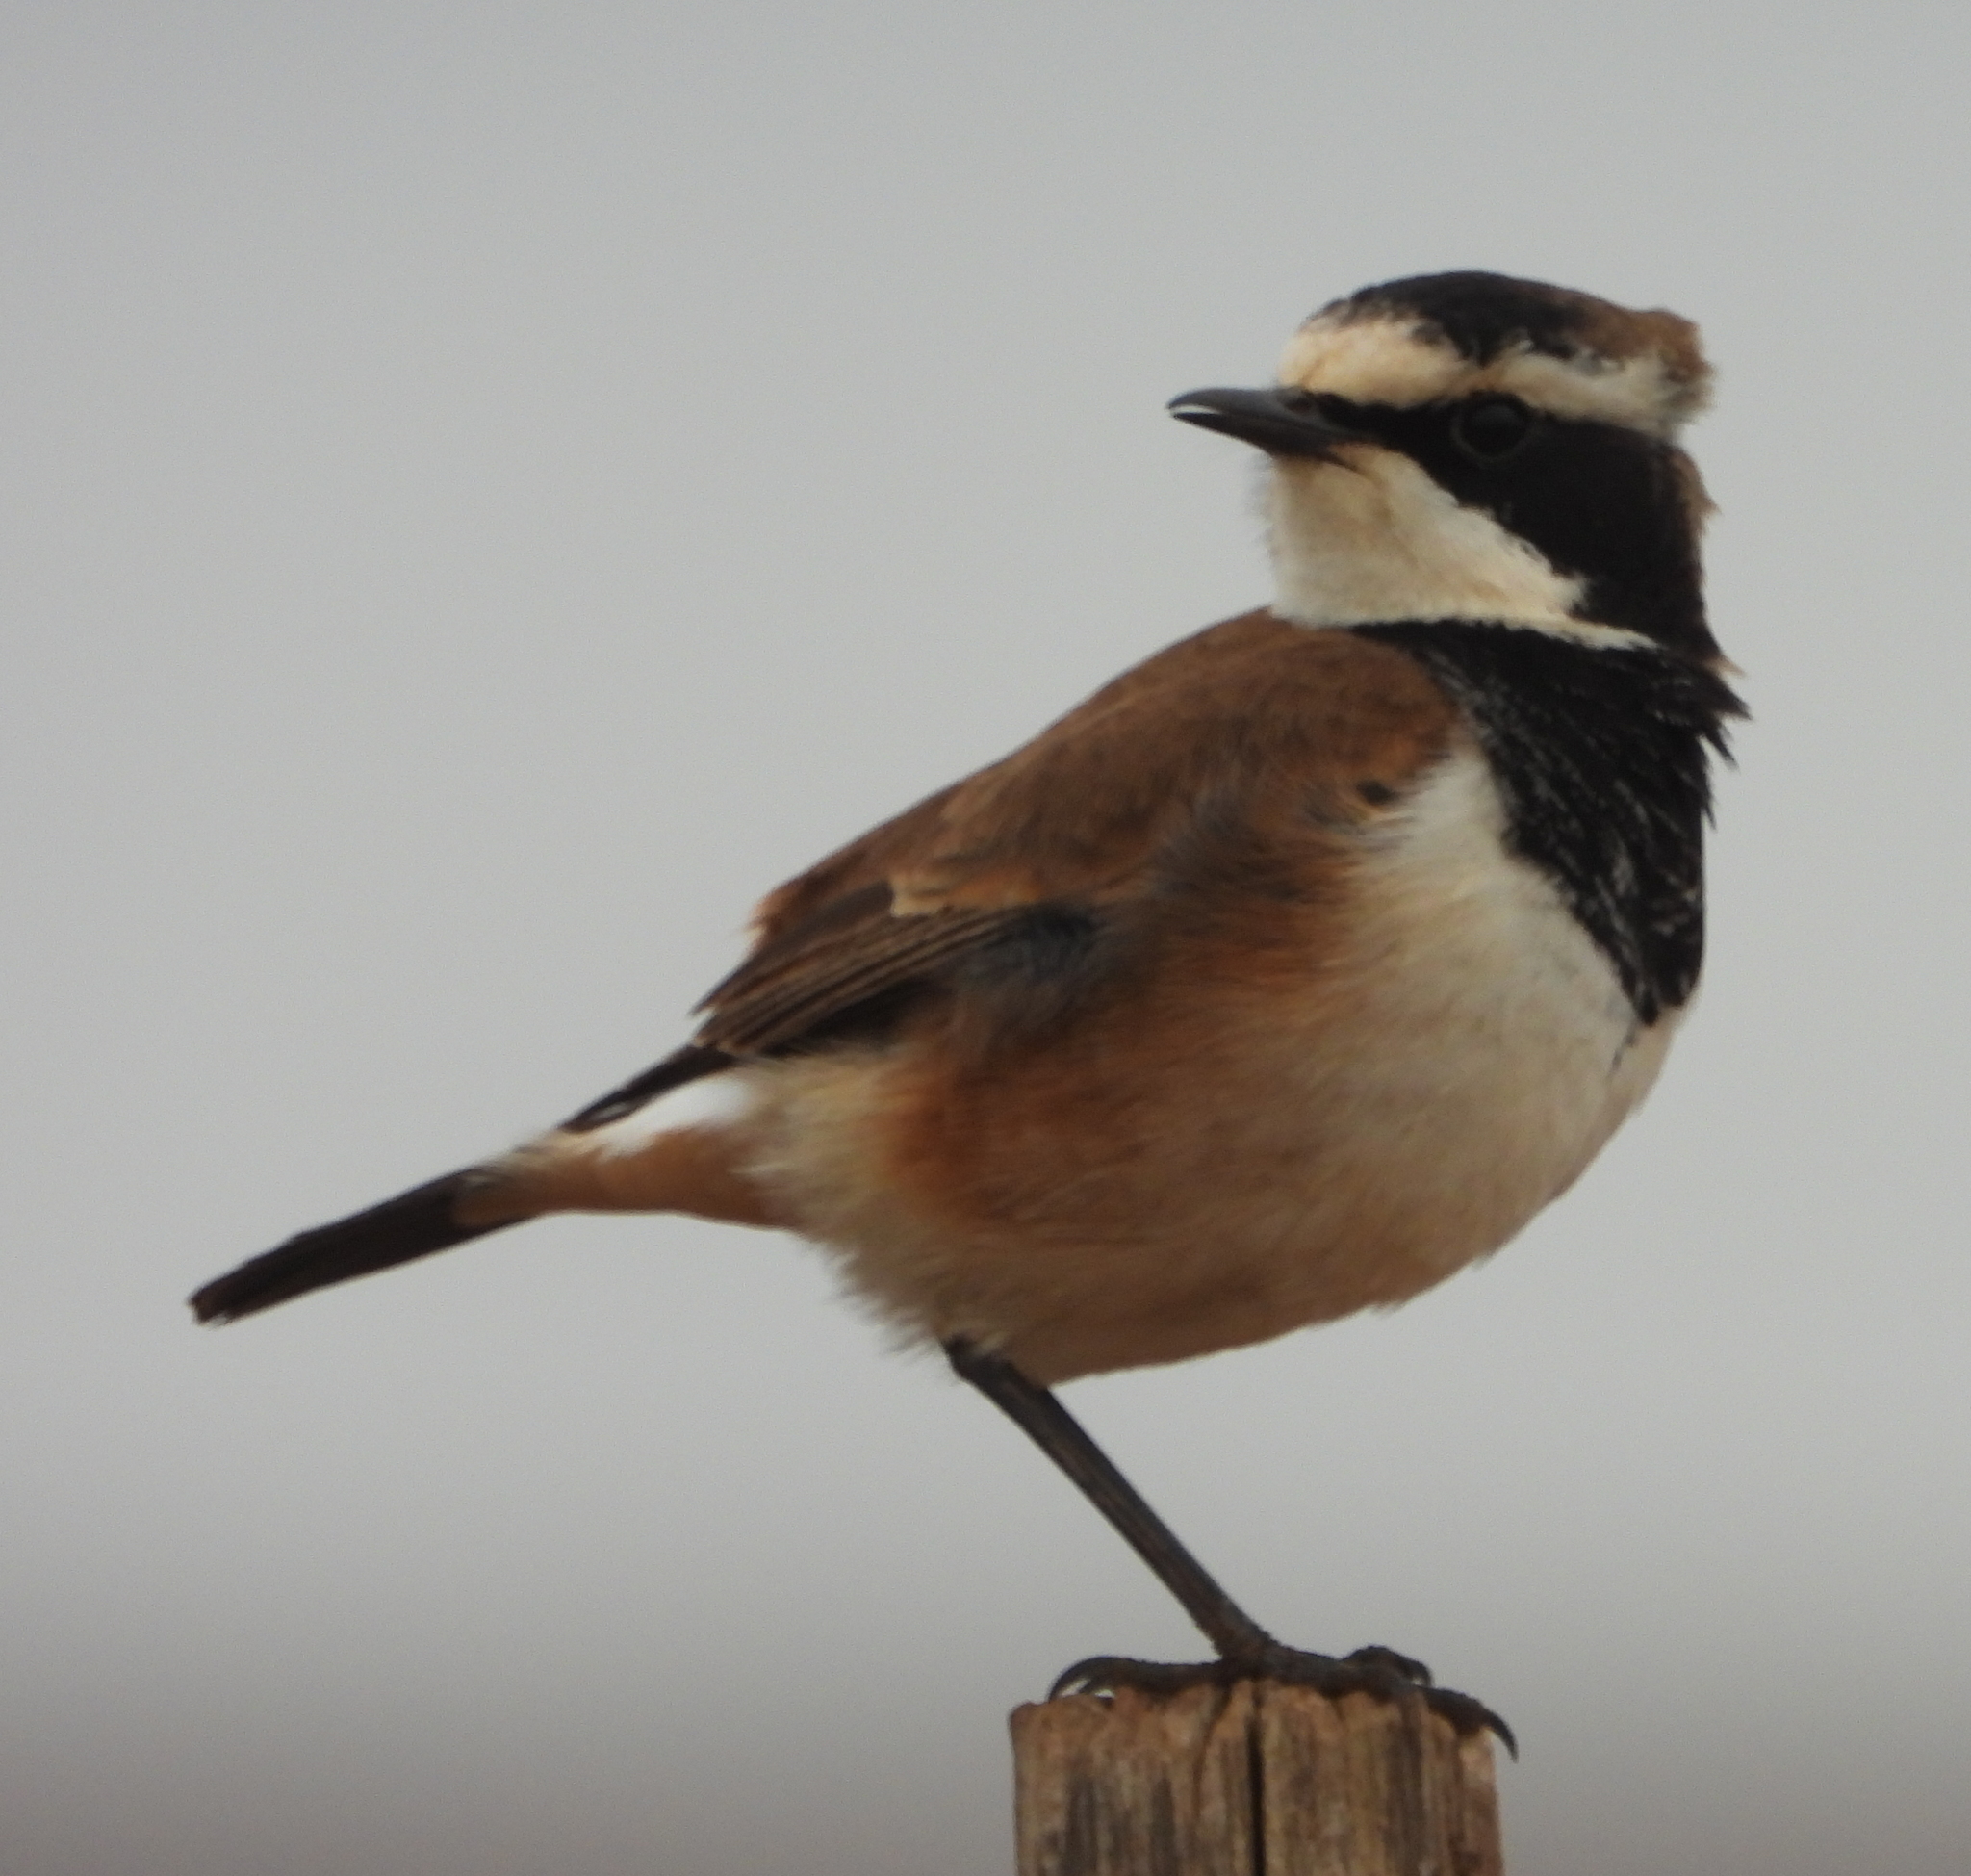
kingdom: Animalia
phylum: Chordata
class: Aves
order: Passeriformes
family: Muscicapidae
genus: Oenanthe
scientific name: Oenanthe pileata
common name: Capped wheatear
